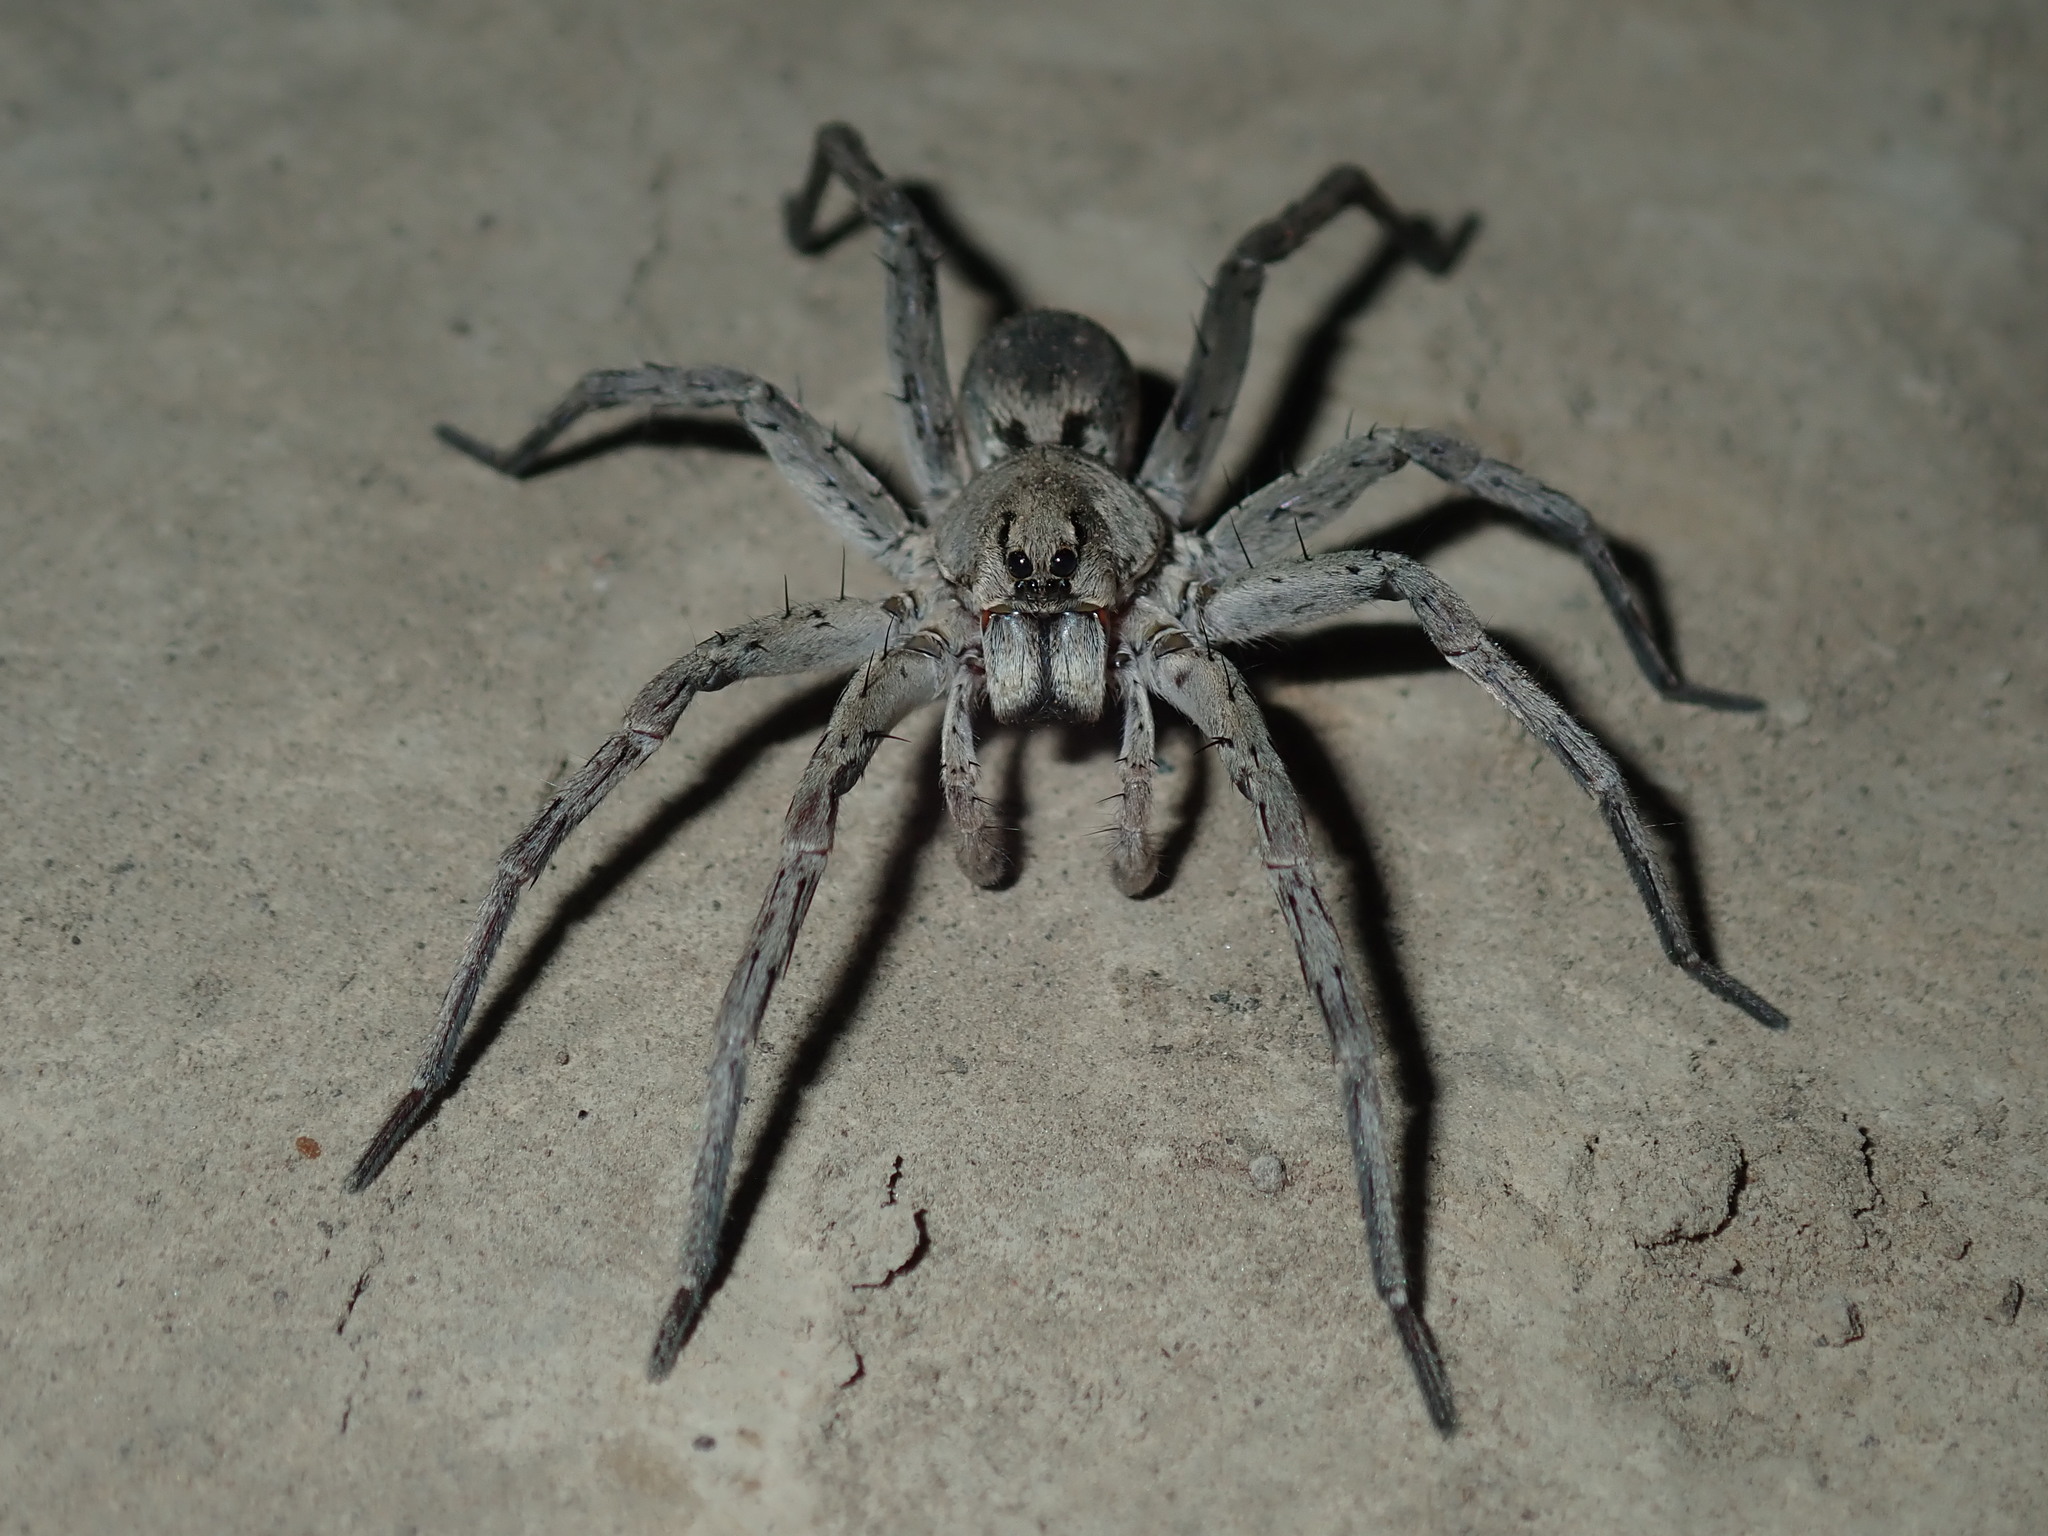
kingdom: Animalia
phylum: Arthropoda
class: Arachnida
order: Araneae
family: Lycosidae
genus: Portacosa
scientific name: Portacosa cinerea
